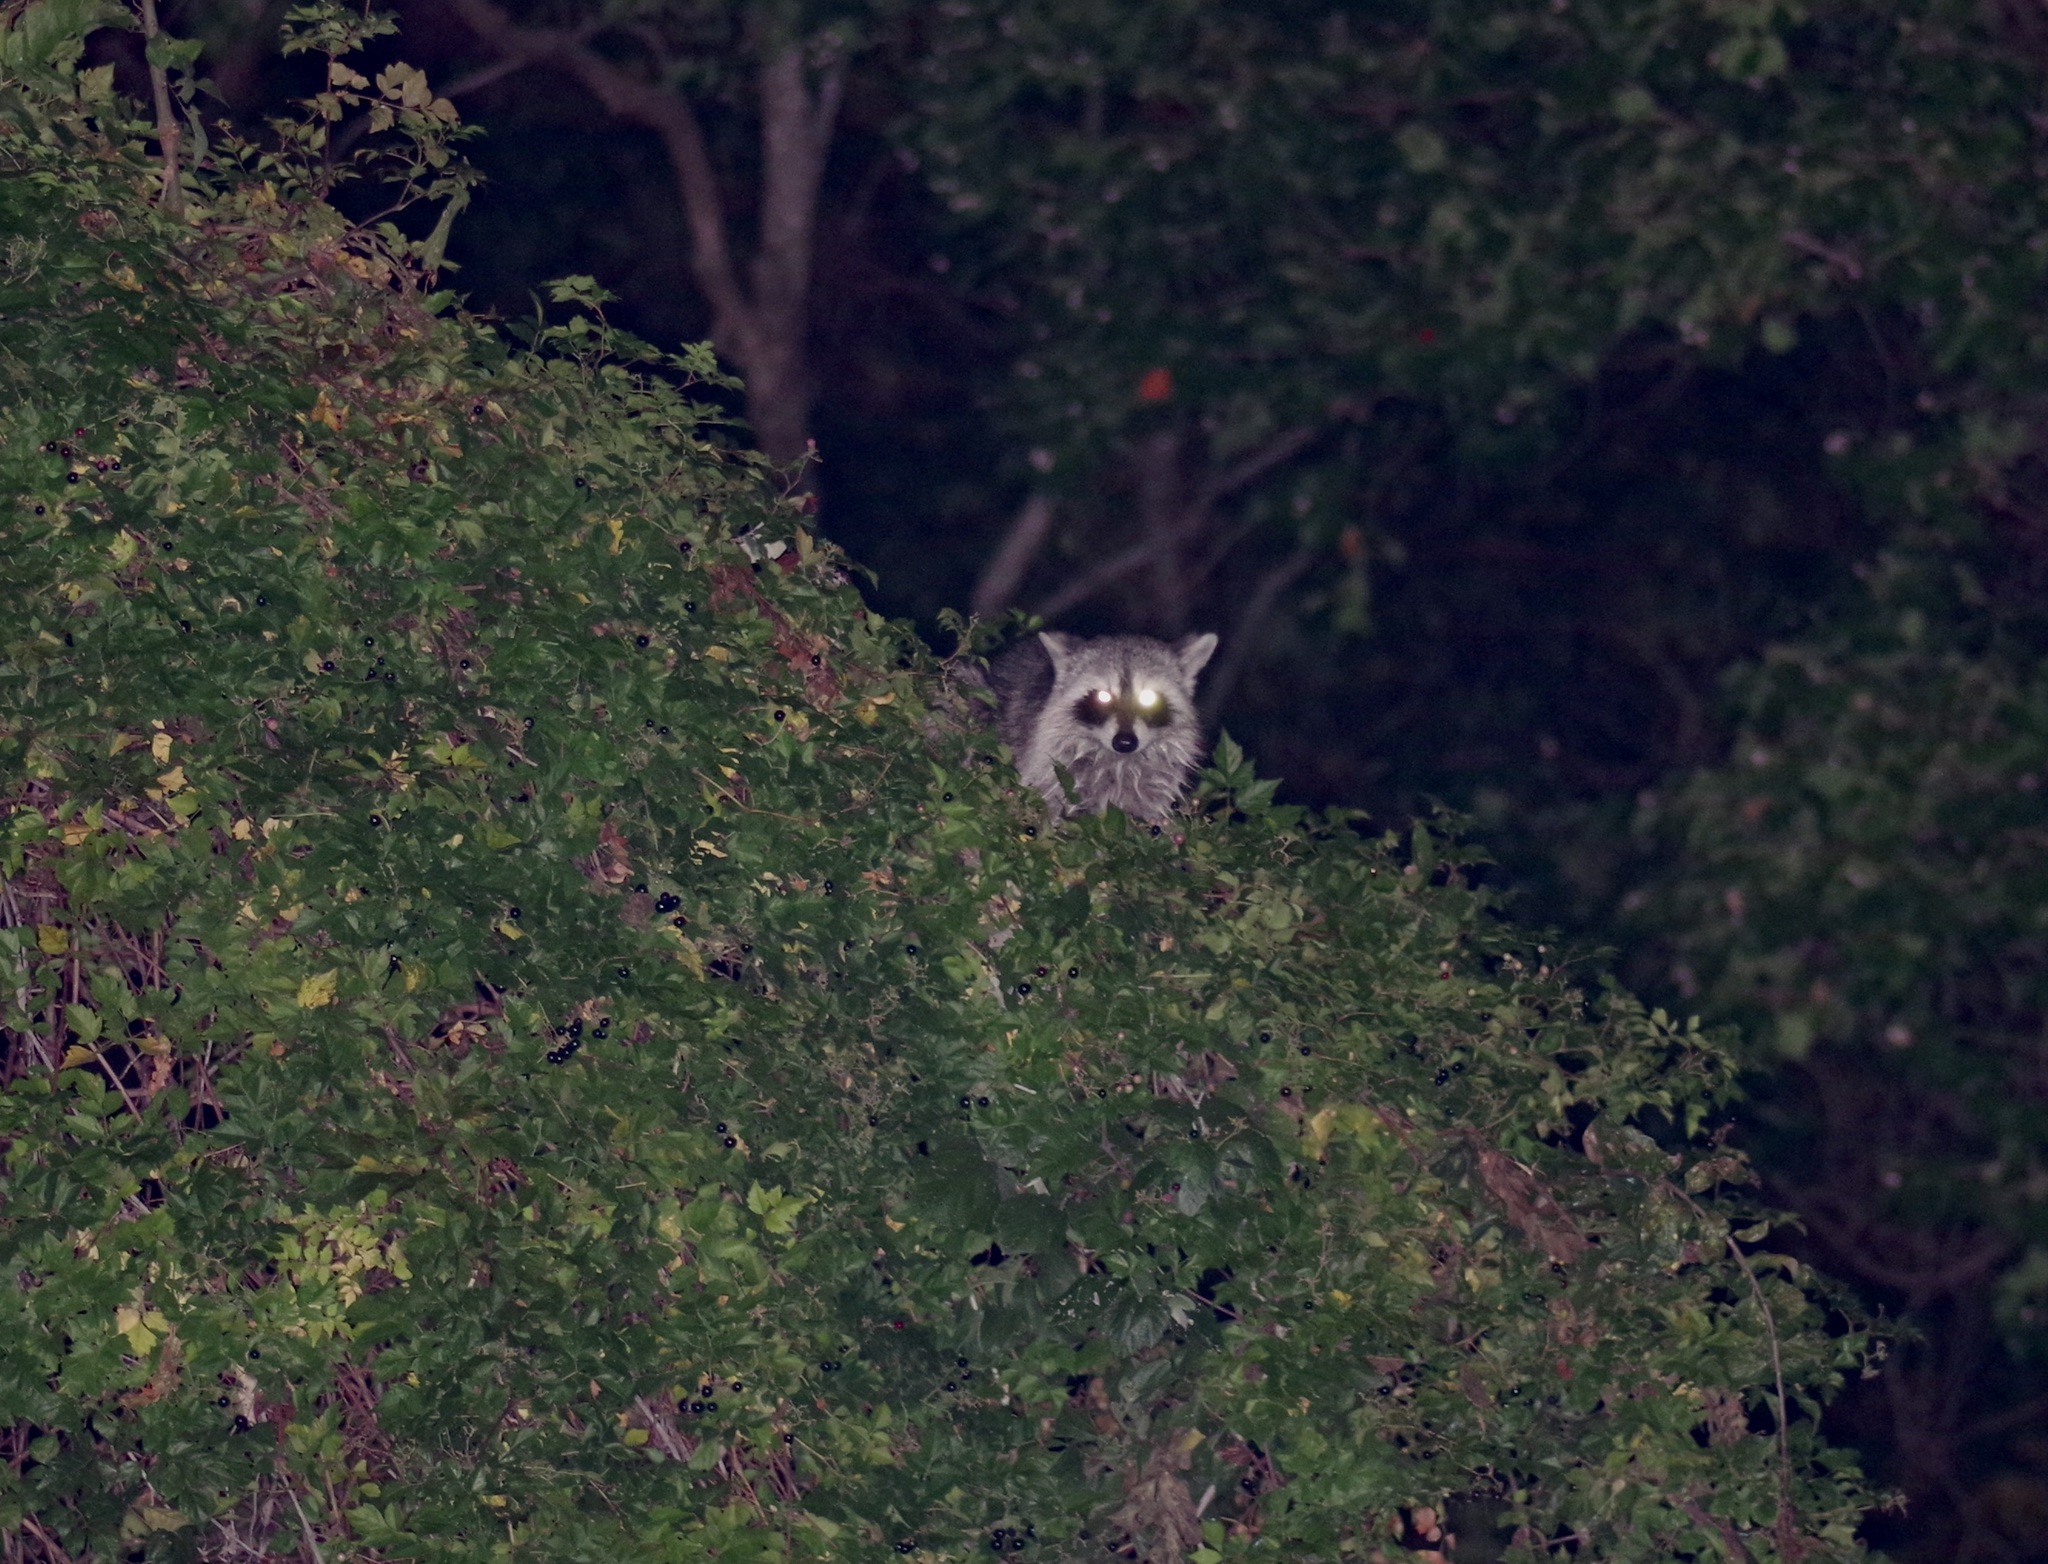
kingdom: Animalia
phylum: Chordata
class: Mammalia
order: Carnivora
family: Procyonidae
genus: Procyon
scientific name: Procyon lotor
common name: Raccoon
